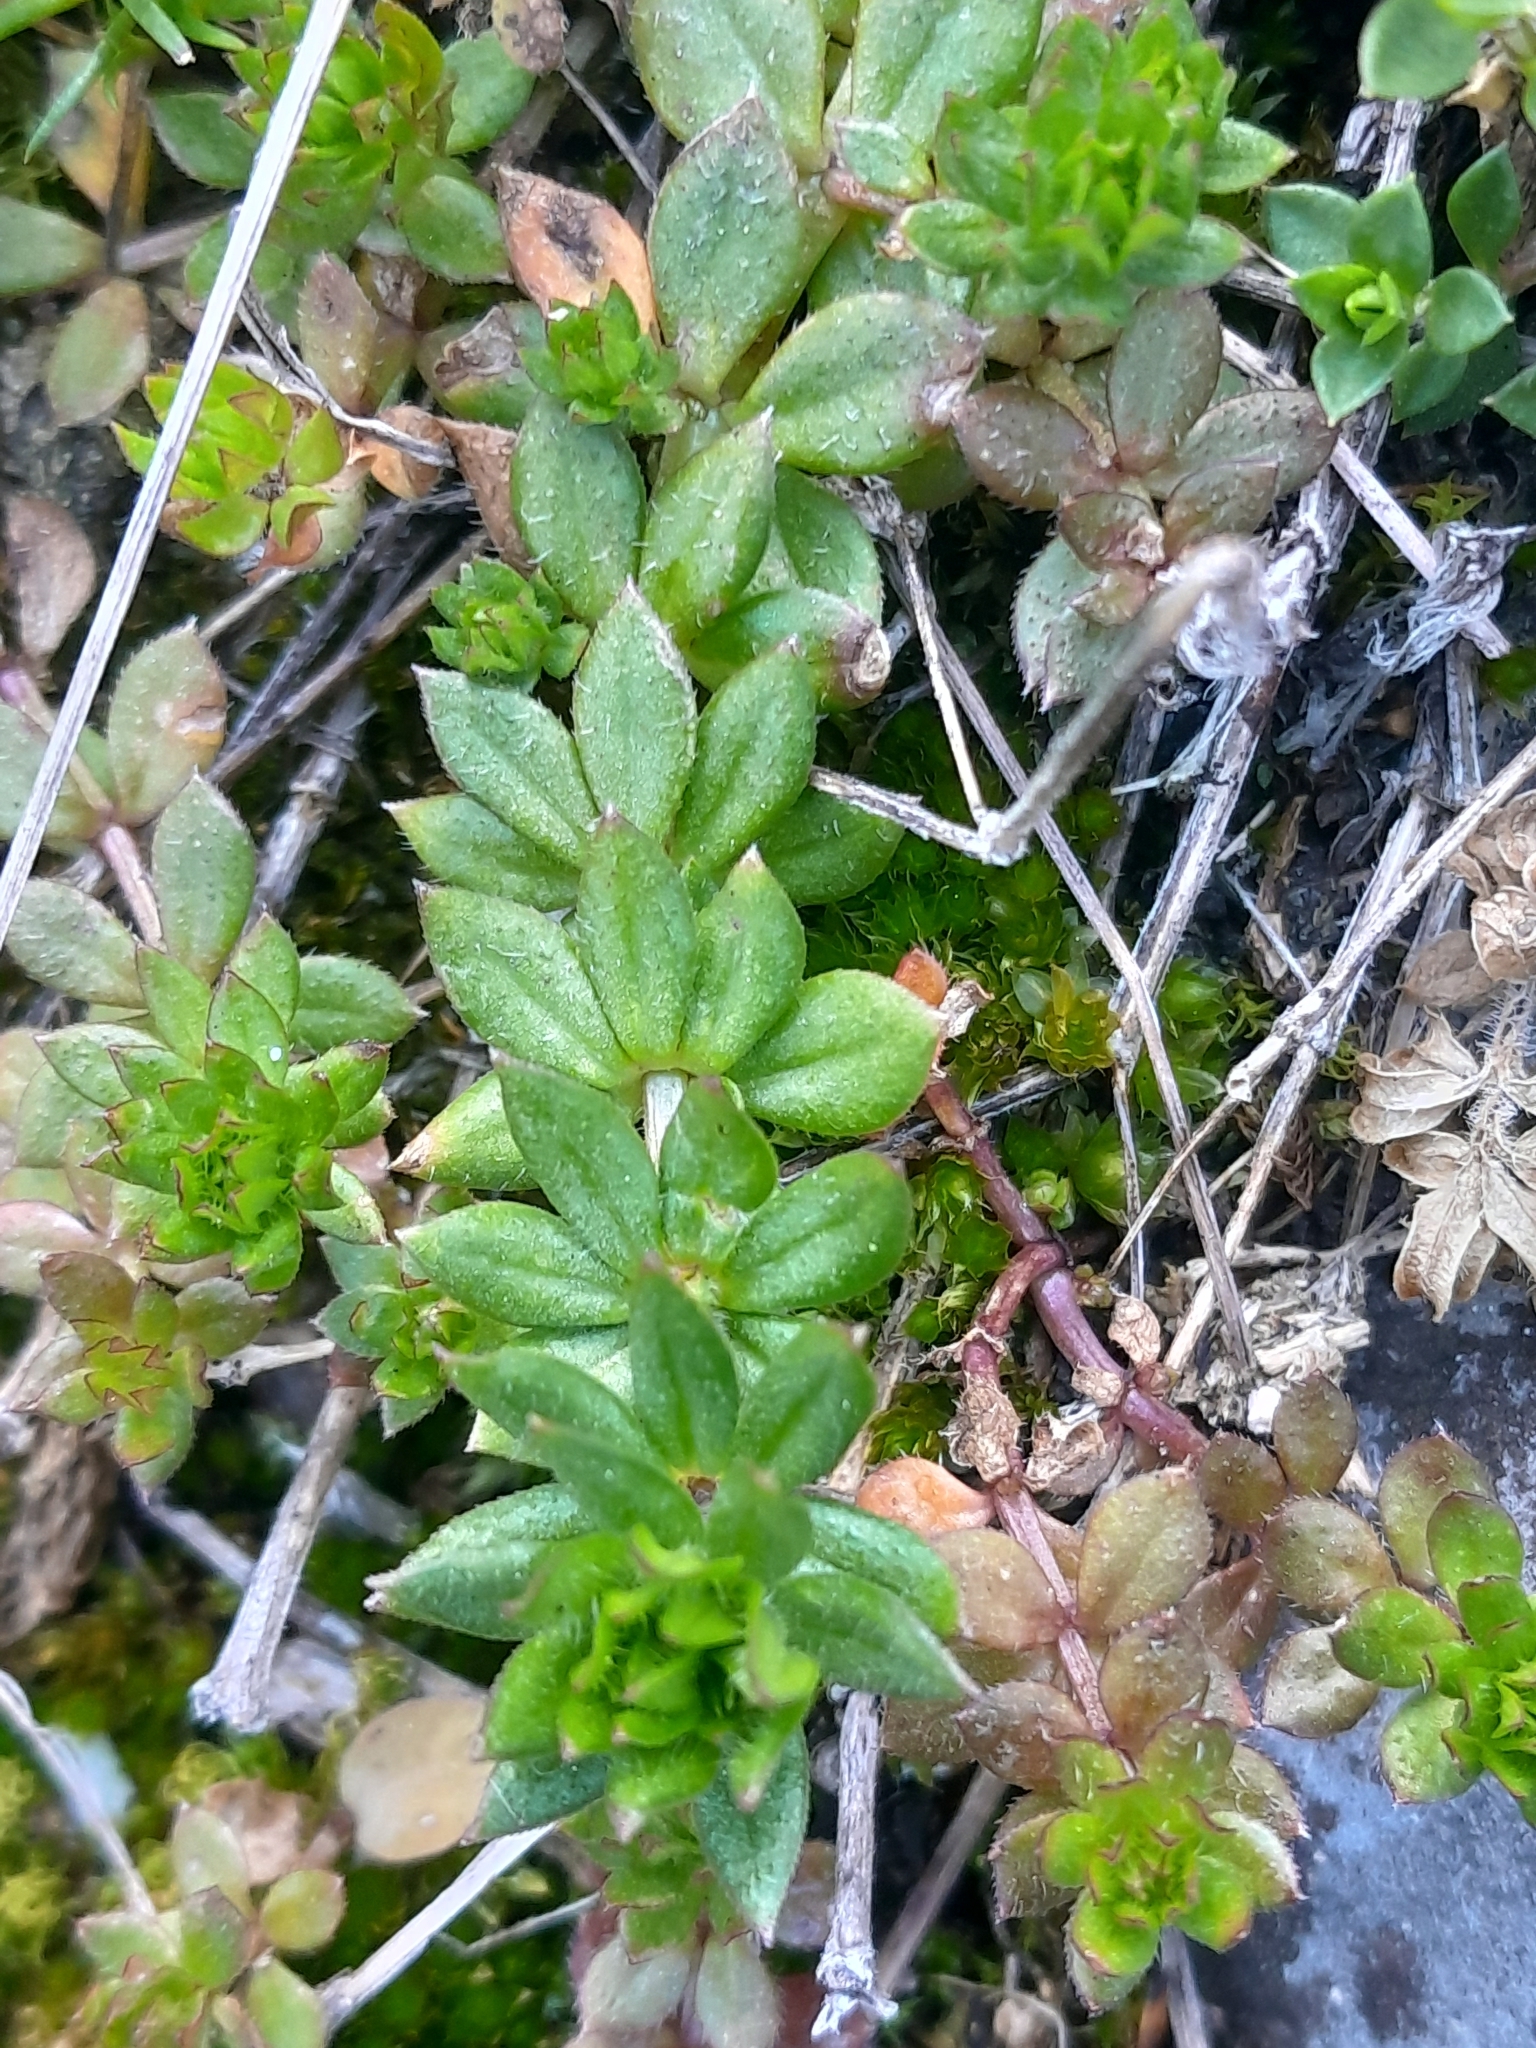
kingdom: Plantae
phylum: Tracheophyta
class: Magnoliopsida
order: Gentianales
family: Rubiaceae
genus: Sherardia
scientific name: Sherardia arvensis
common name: Field madder
